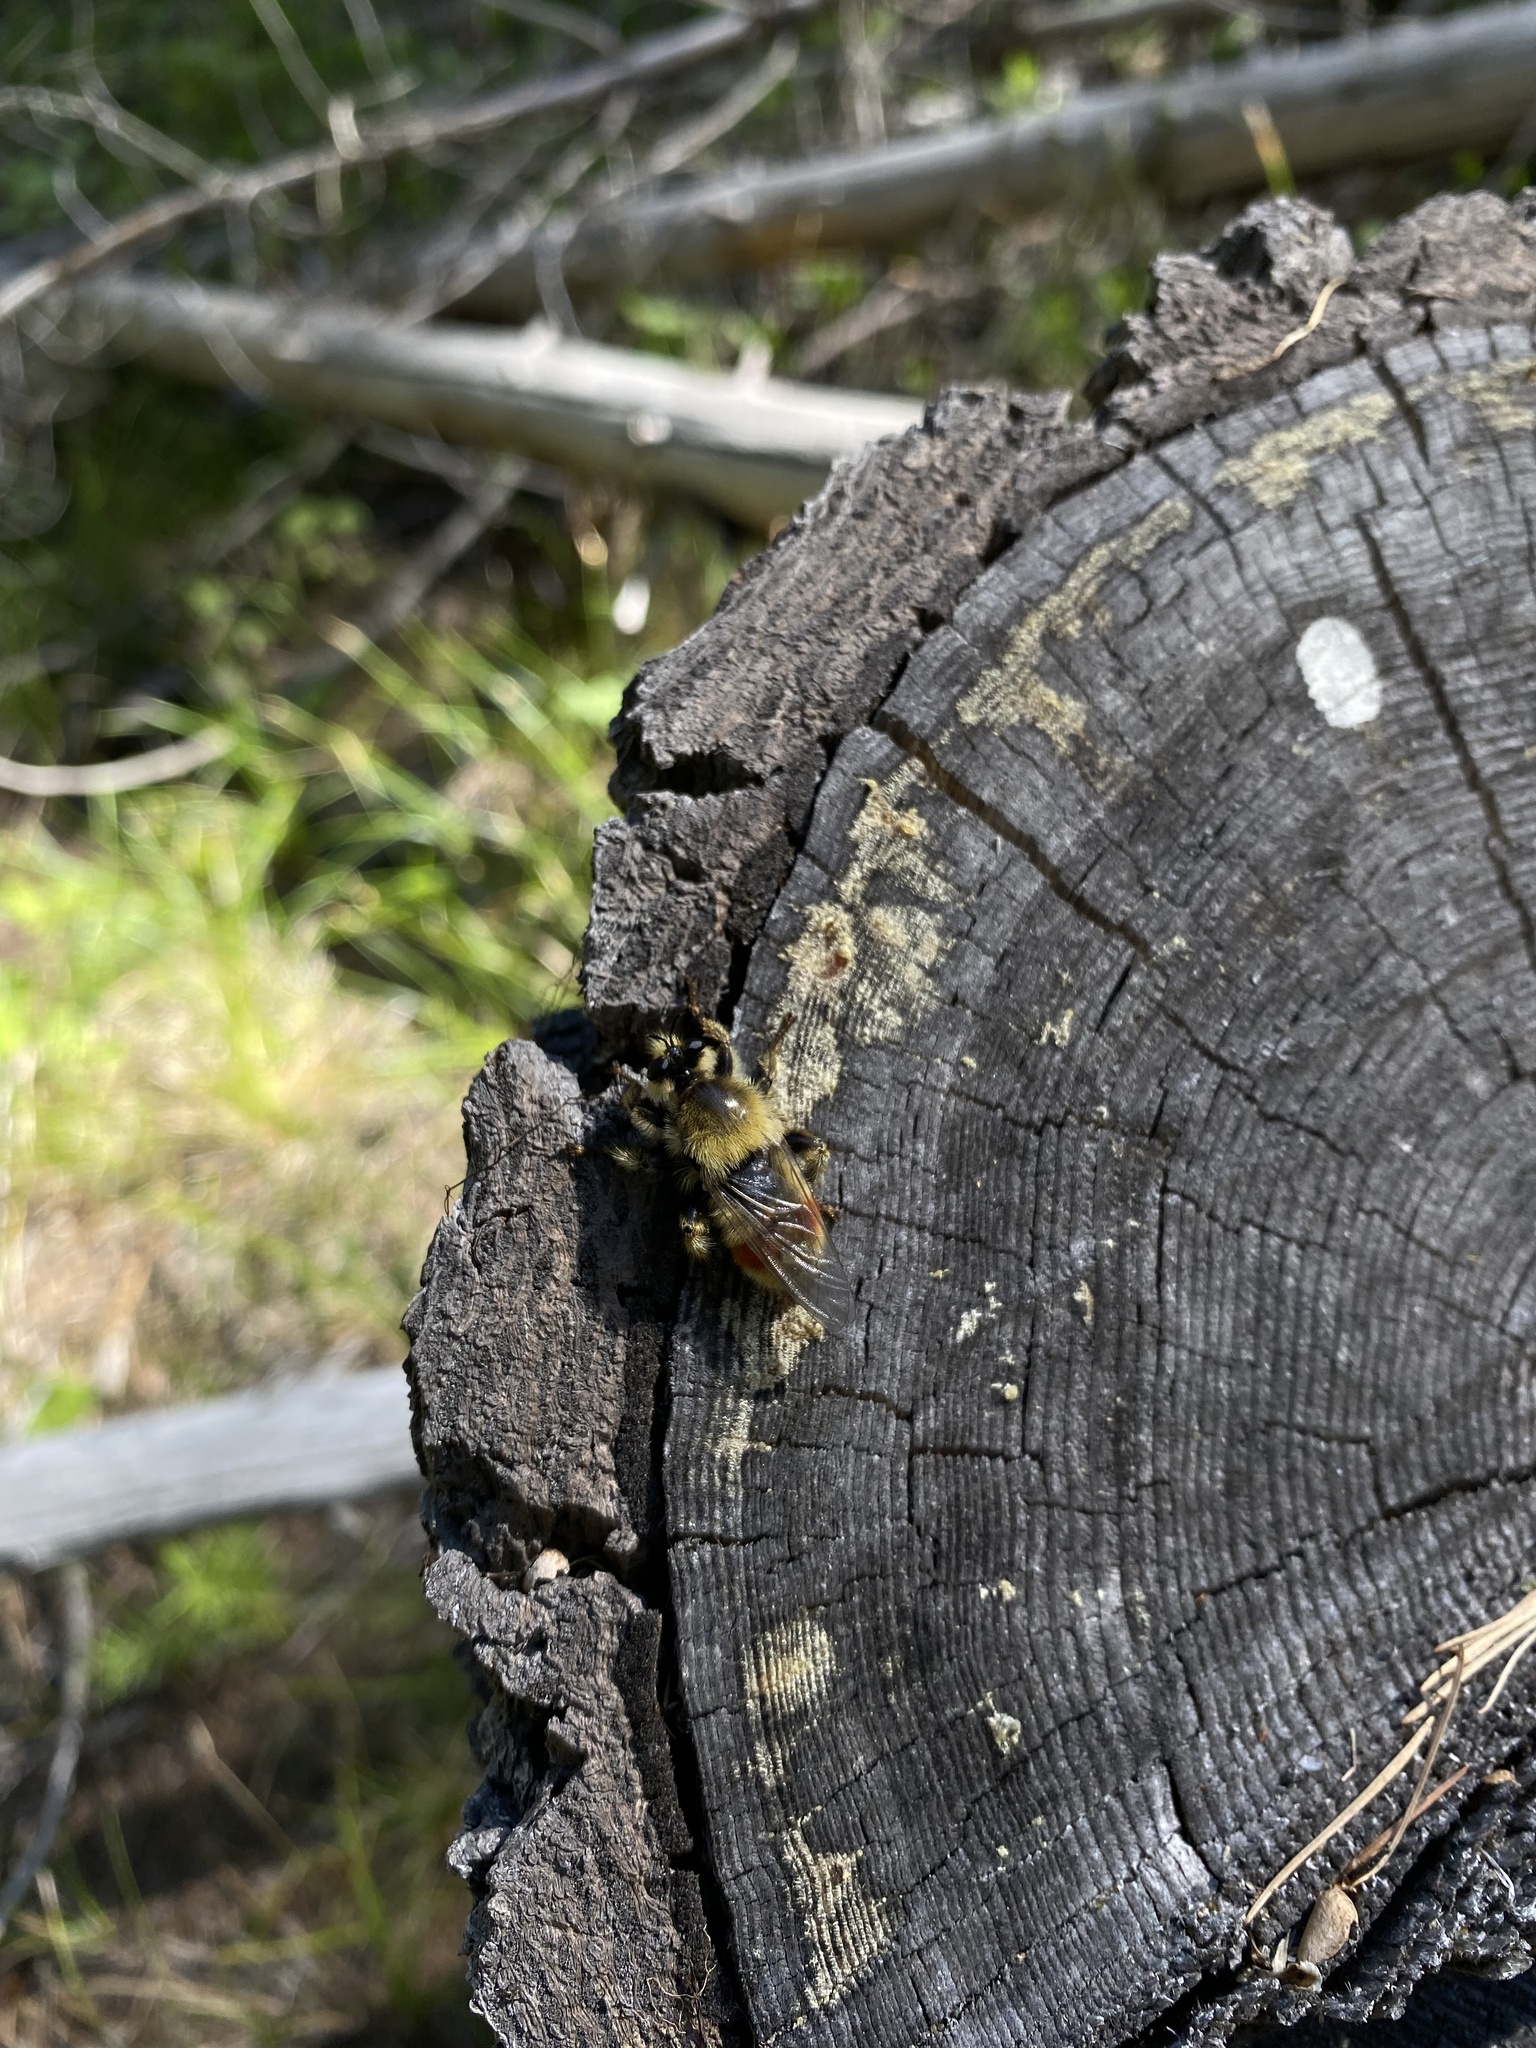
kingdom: Animalia
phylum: Arthropoda
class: Insecta
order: Diptera
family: Asilidae
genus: Laphria
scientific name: Laphria fernaldi
